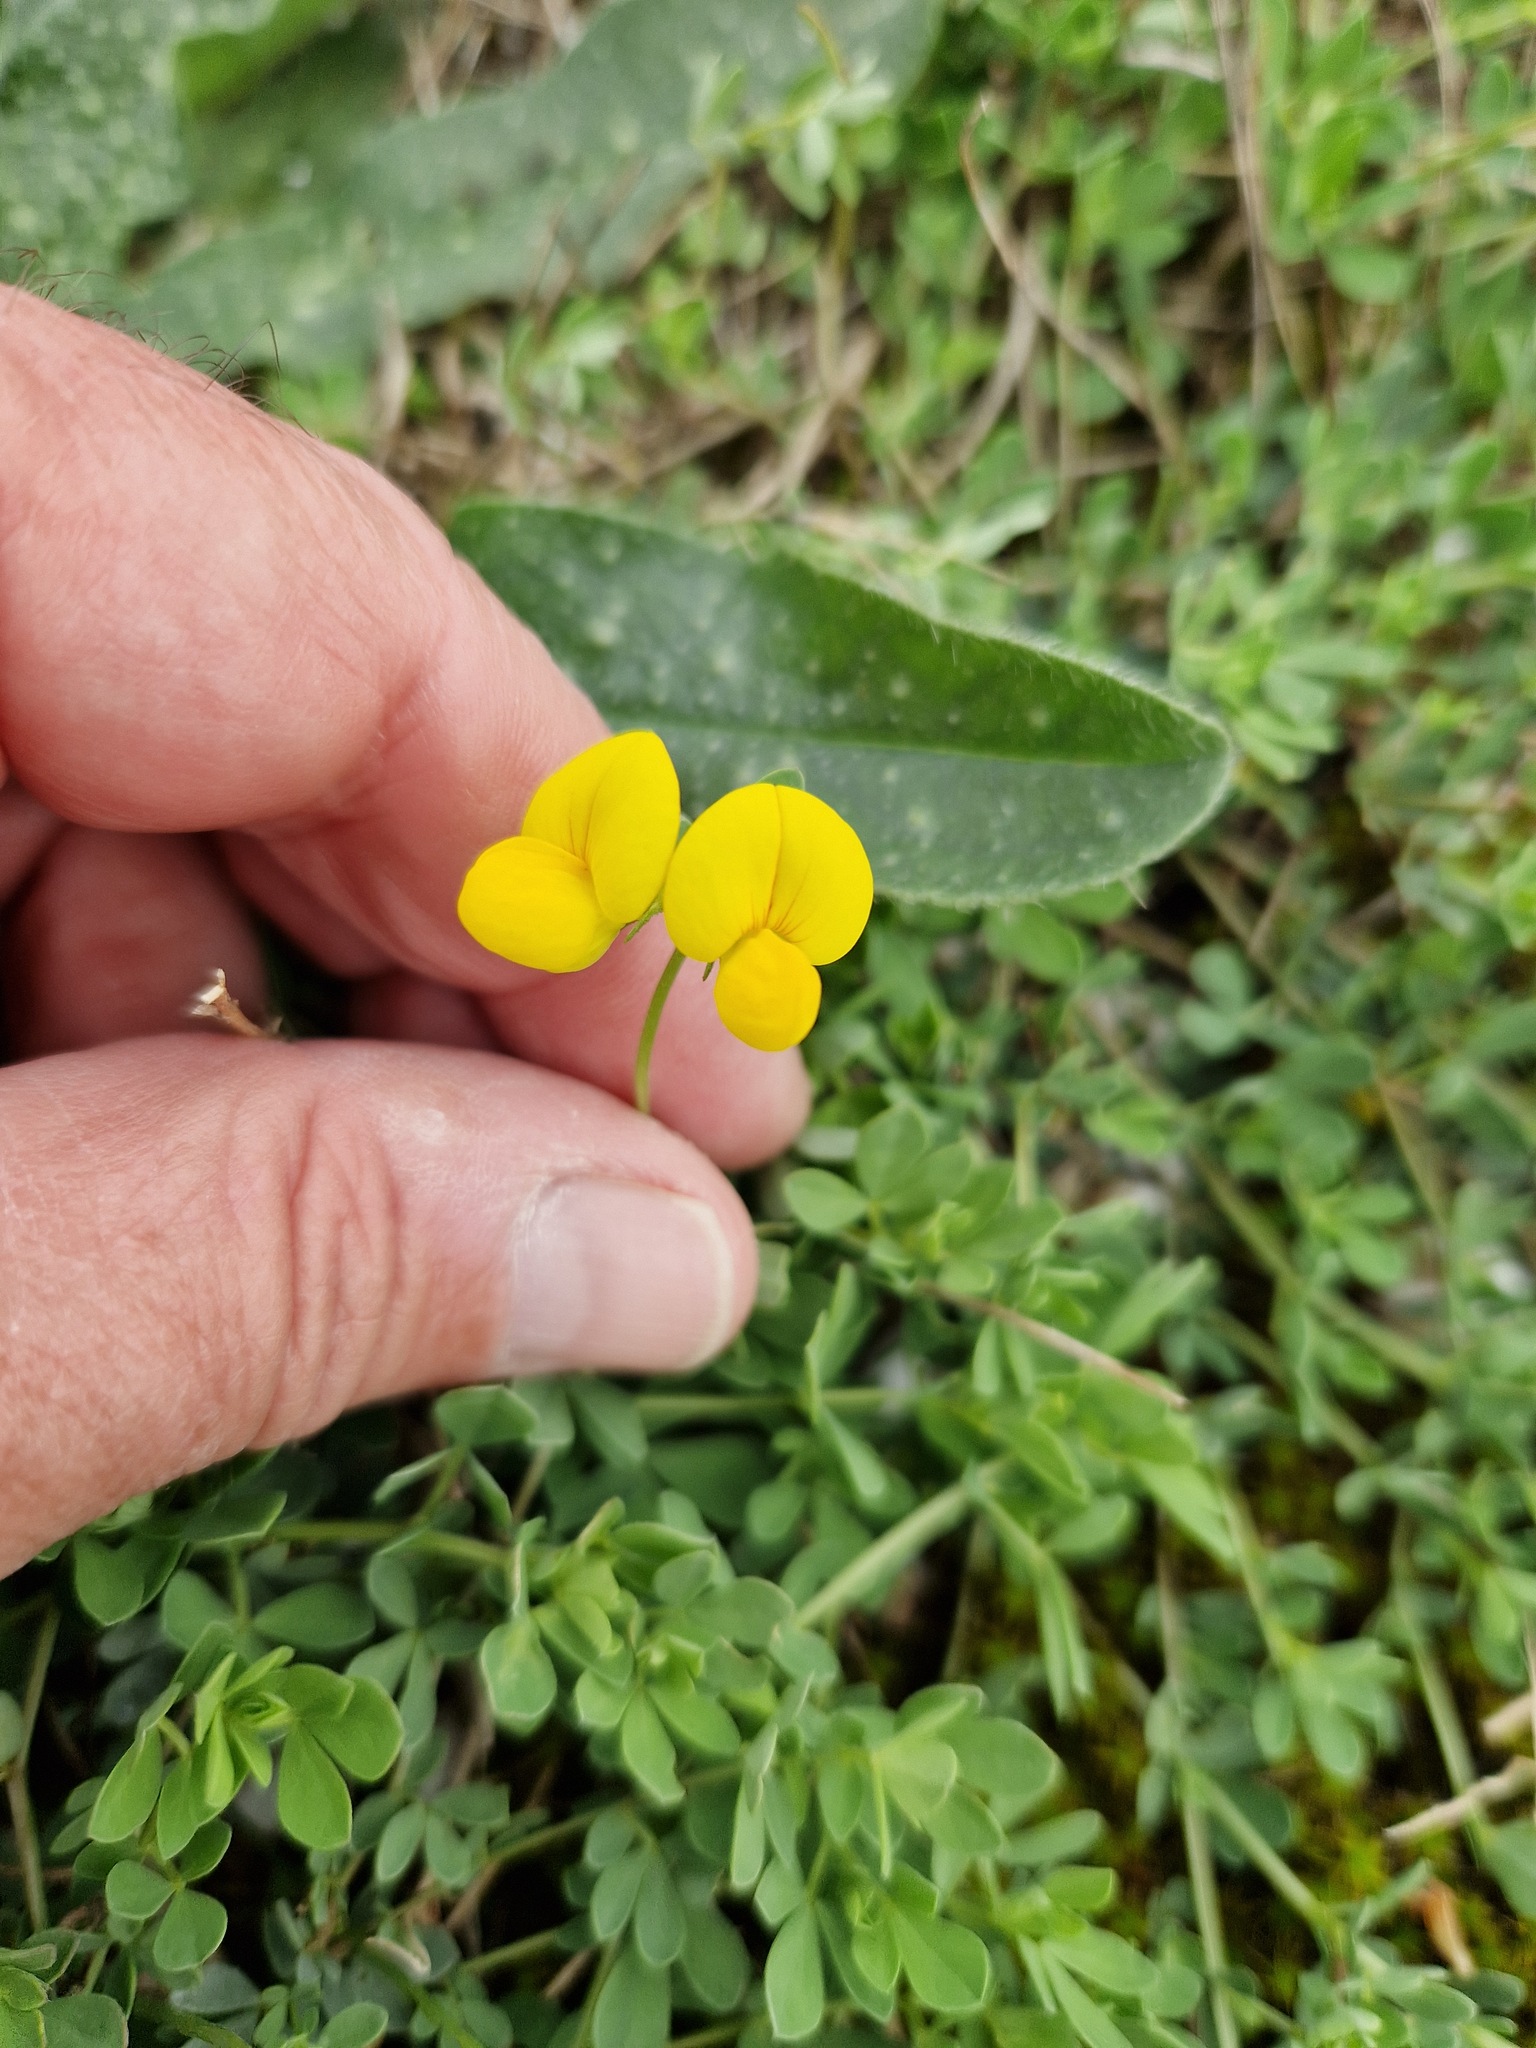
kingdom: Plantae
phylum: Tracheophyta
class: Magnoliopsida
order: Fabales
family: Fabaceae
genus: Lotus
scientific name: Lotus corniculatus
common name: Common bird's-foot-trefoil
